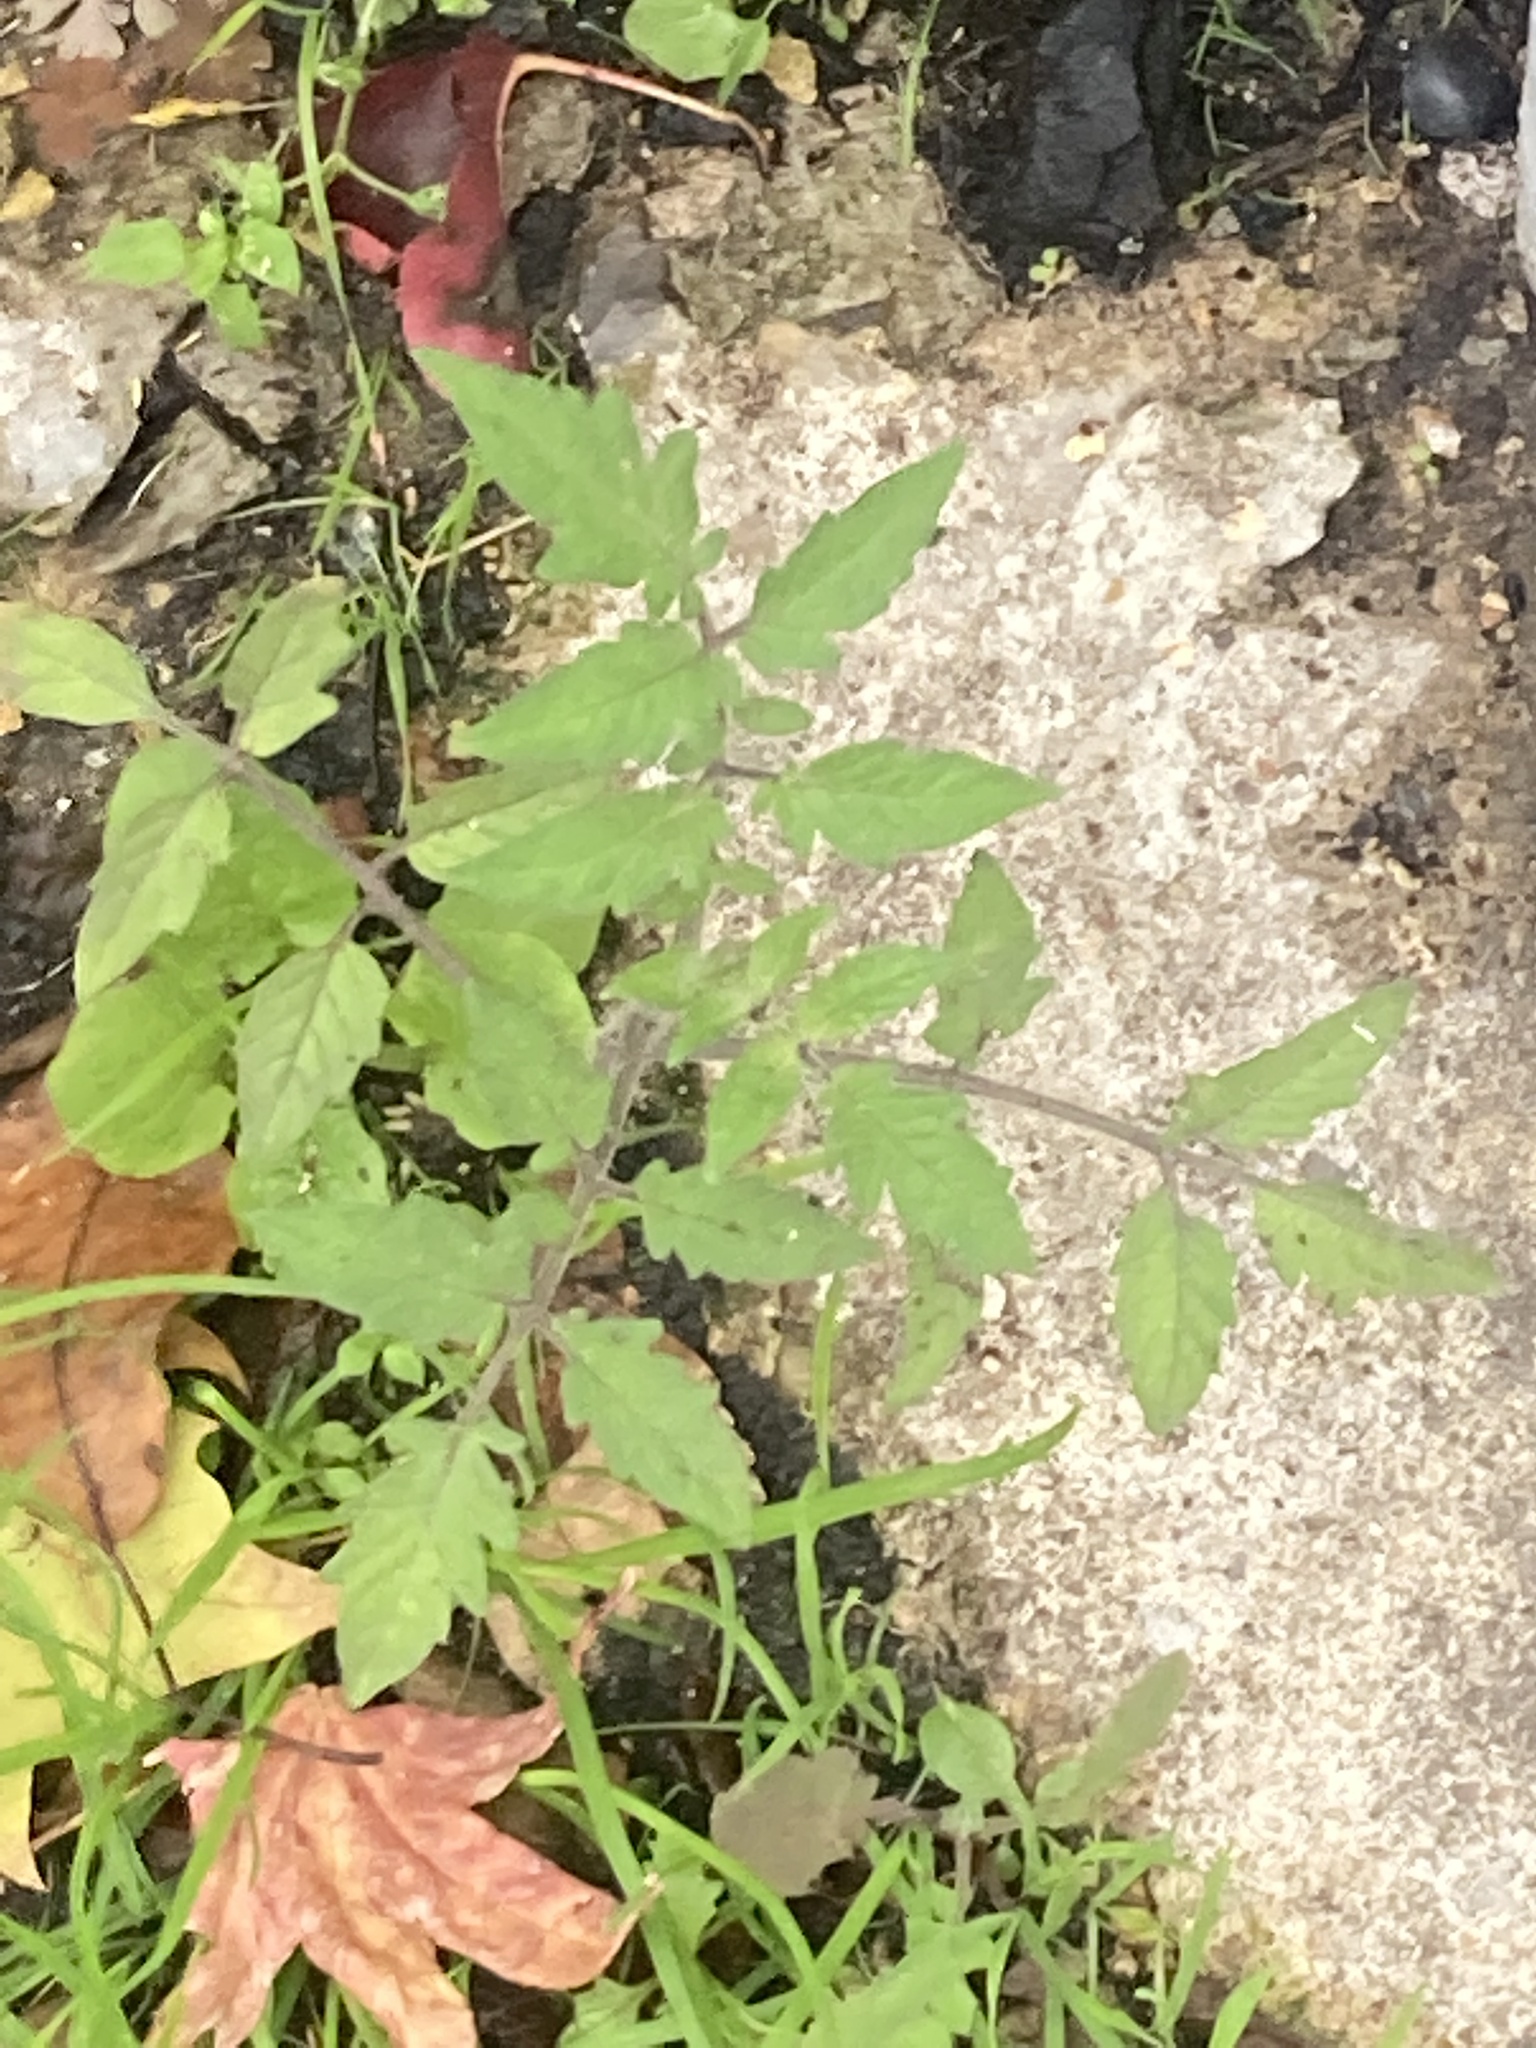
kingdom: Plantae
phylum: Tracheophyta
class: Magnoliopsida
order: Solanales
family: Solanaceae
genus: Solanum
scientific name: Solanum lycopersicum
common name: Garden tomato
